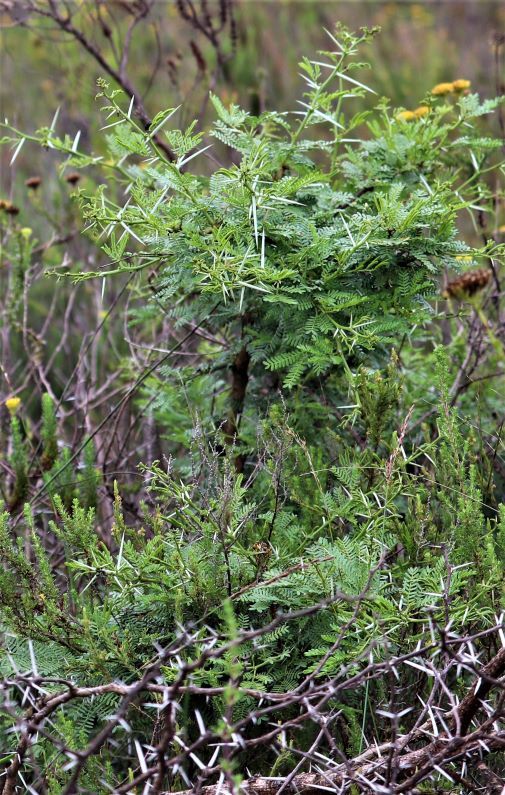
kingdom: Plantae
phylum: Tracheophyta
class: Magnoliopsida
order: Fabales
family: Fabaceae
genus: Vachellia
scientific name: Vachellia karroo
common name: Sweet thorn
